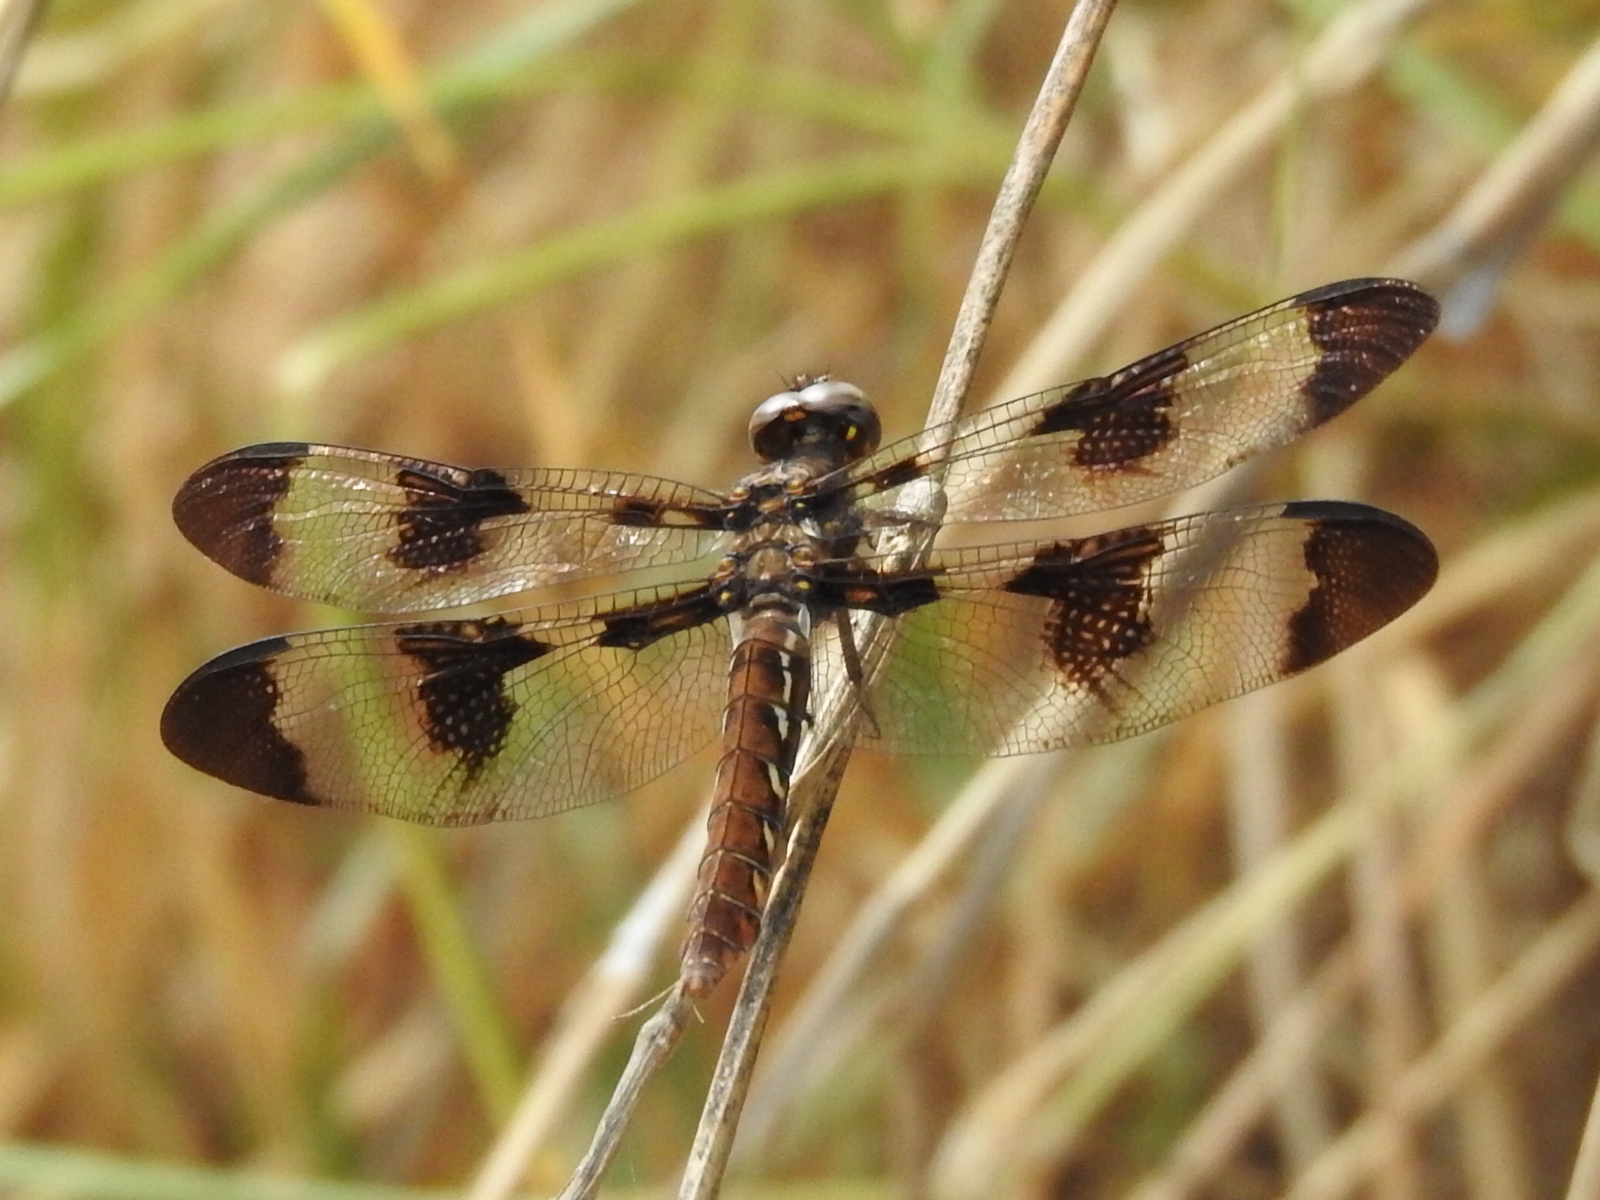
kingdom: Animalia
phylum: Arthropoda
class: Insecta
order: Odonata
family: Libellulidae
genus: Plathemis
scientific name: Plathemis lydia
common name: Common whitetail
